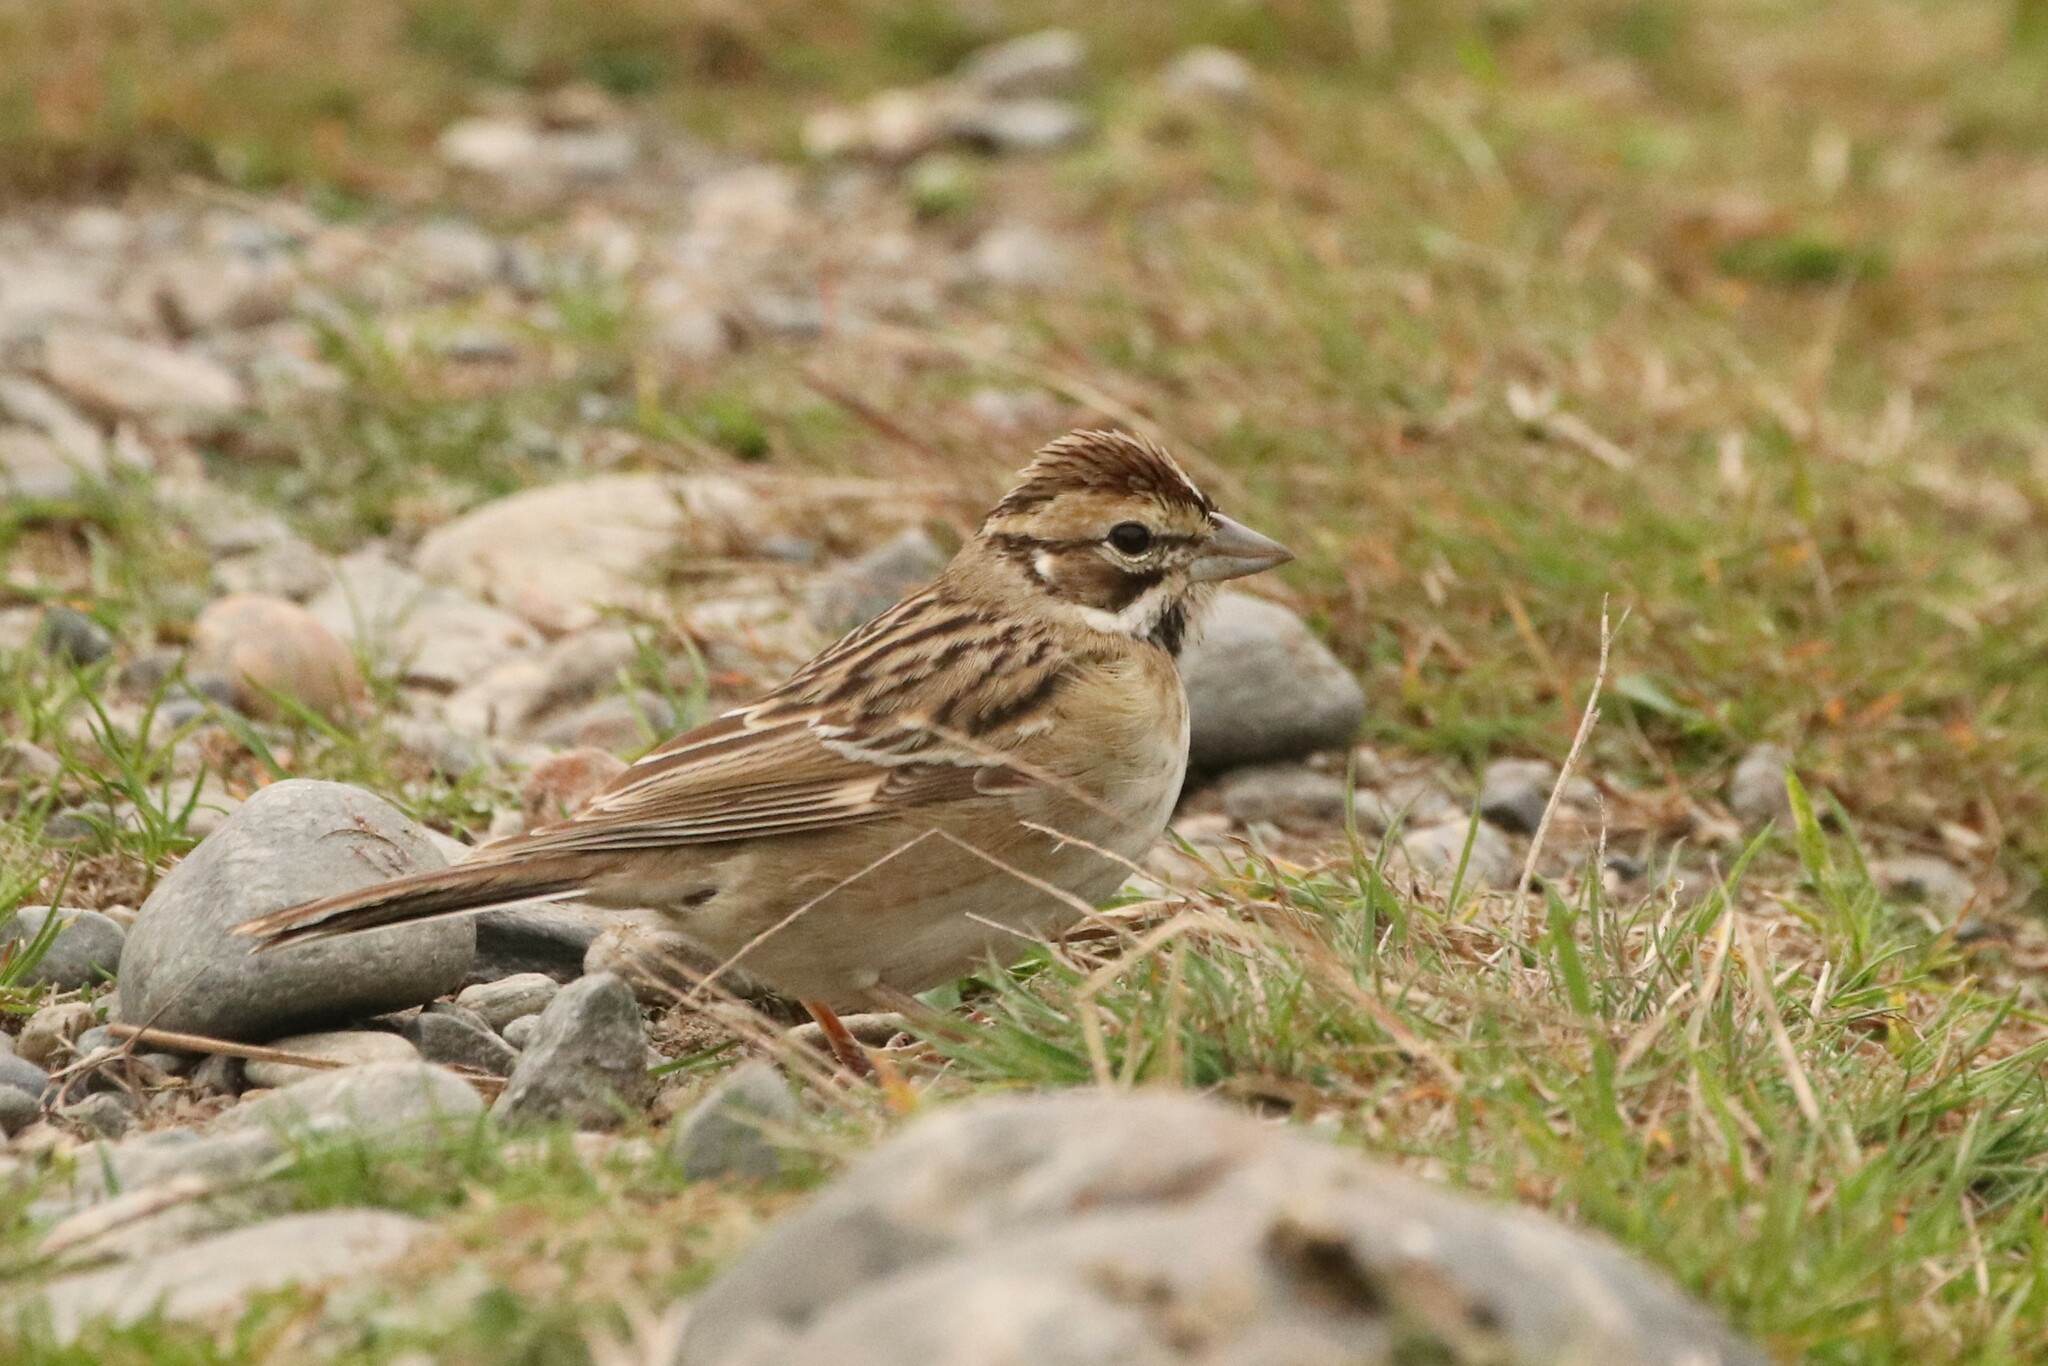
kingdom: Animalia
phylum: Chordata
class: Aves
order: Passeriformes
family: Passerellidae
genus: Chondestes
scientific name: Chondestes grammacus
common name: Lark sparrow
